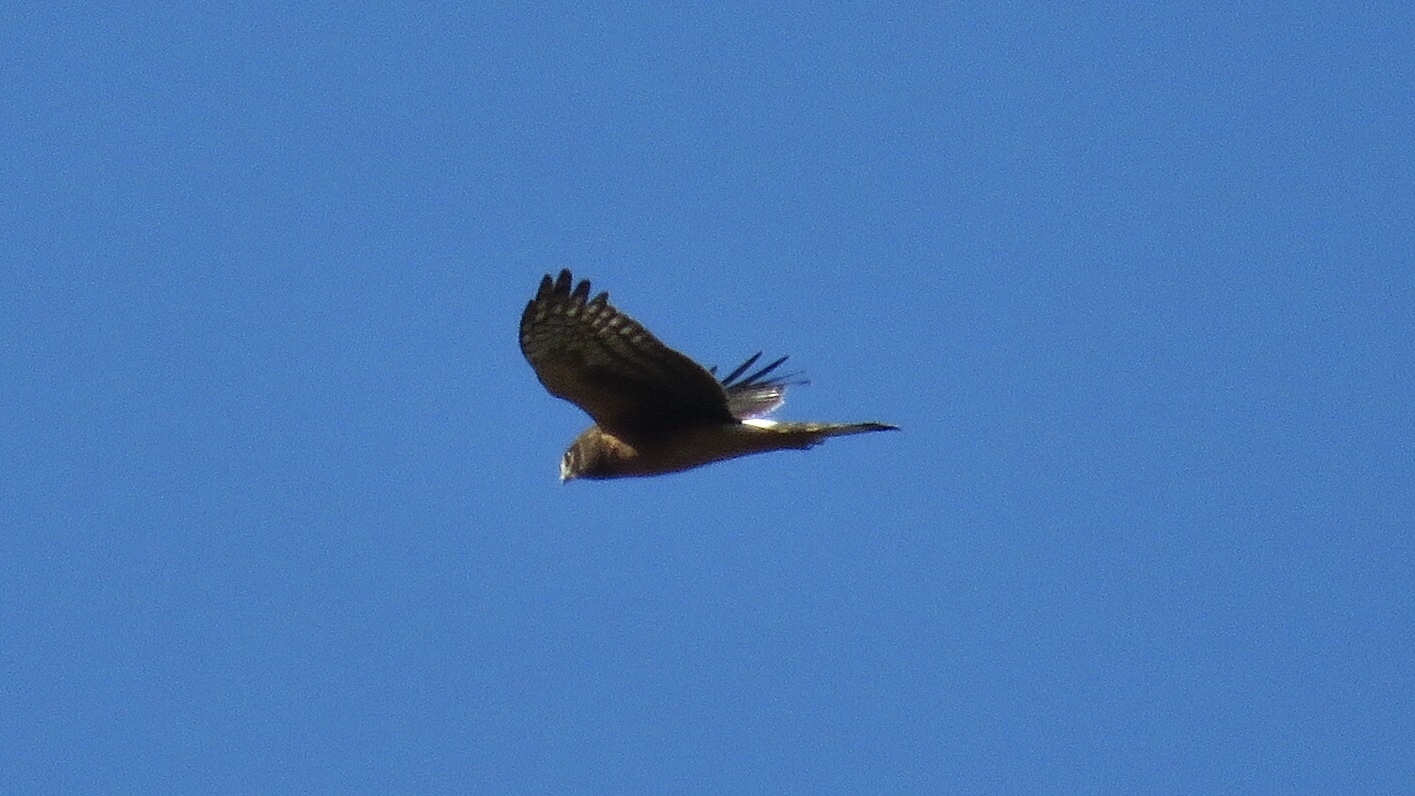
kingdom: Animalia
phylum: Chordata
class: Aves
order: Accipitriformes
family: Accipitridae
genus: Circus
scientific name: Circus cyaneus
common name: Hen harrier
